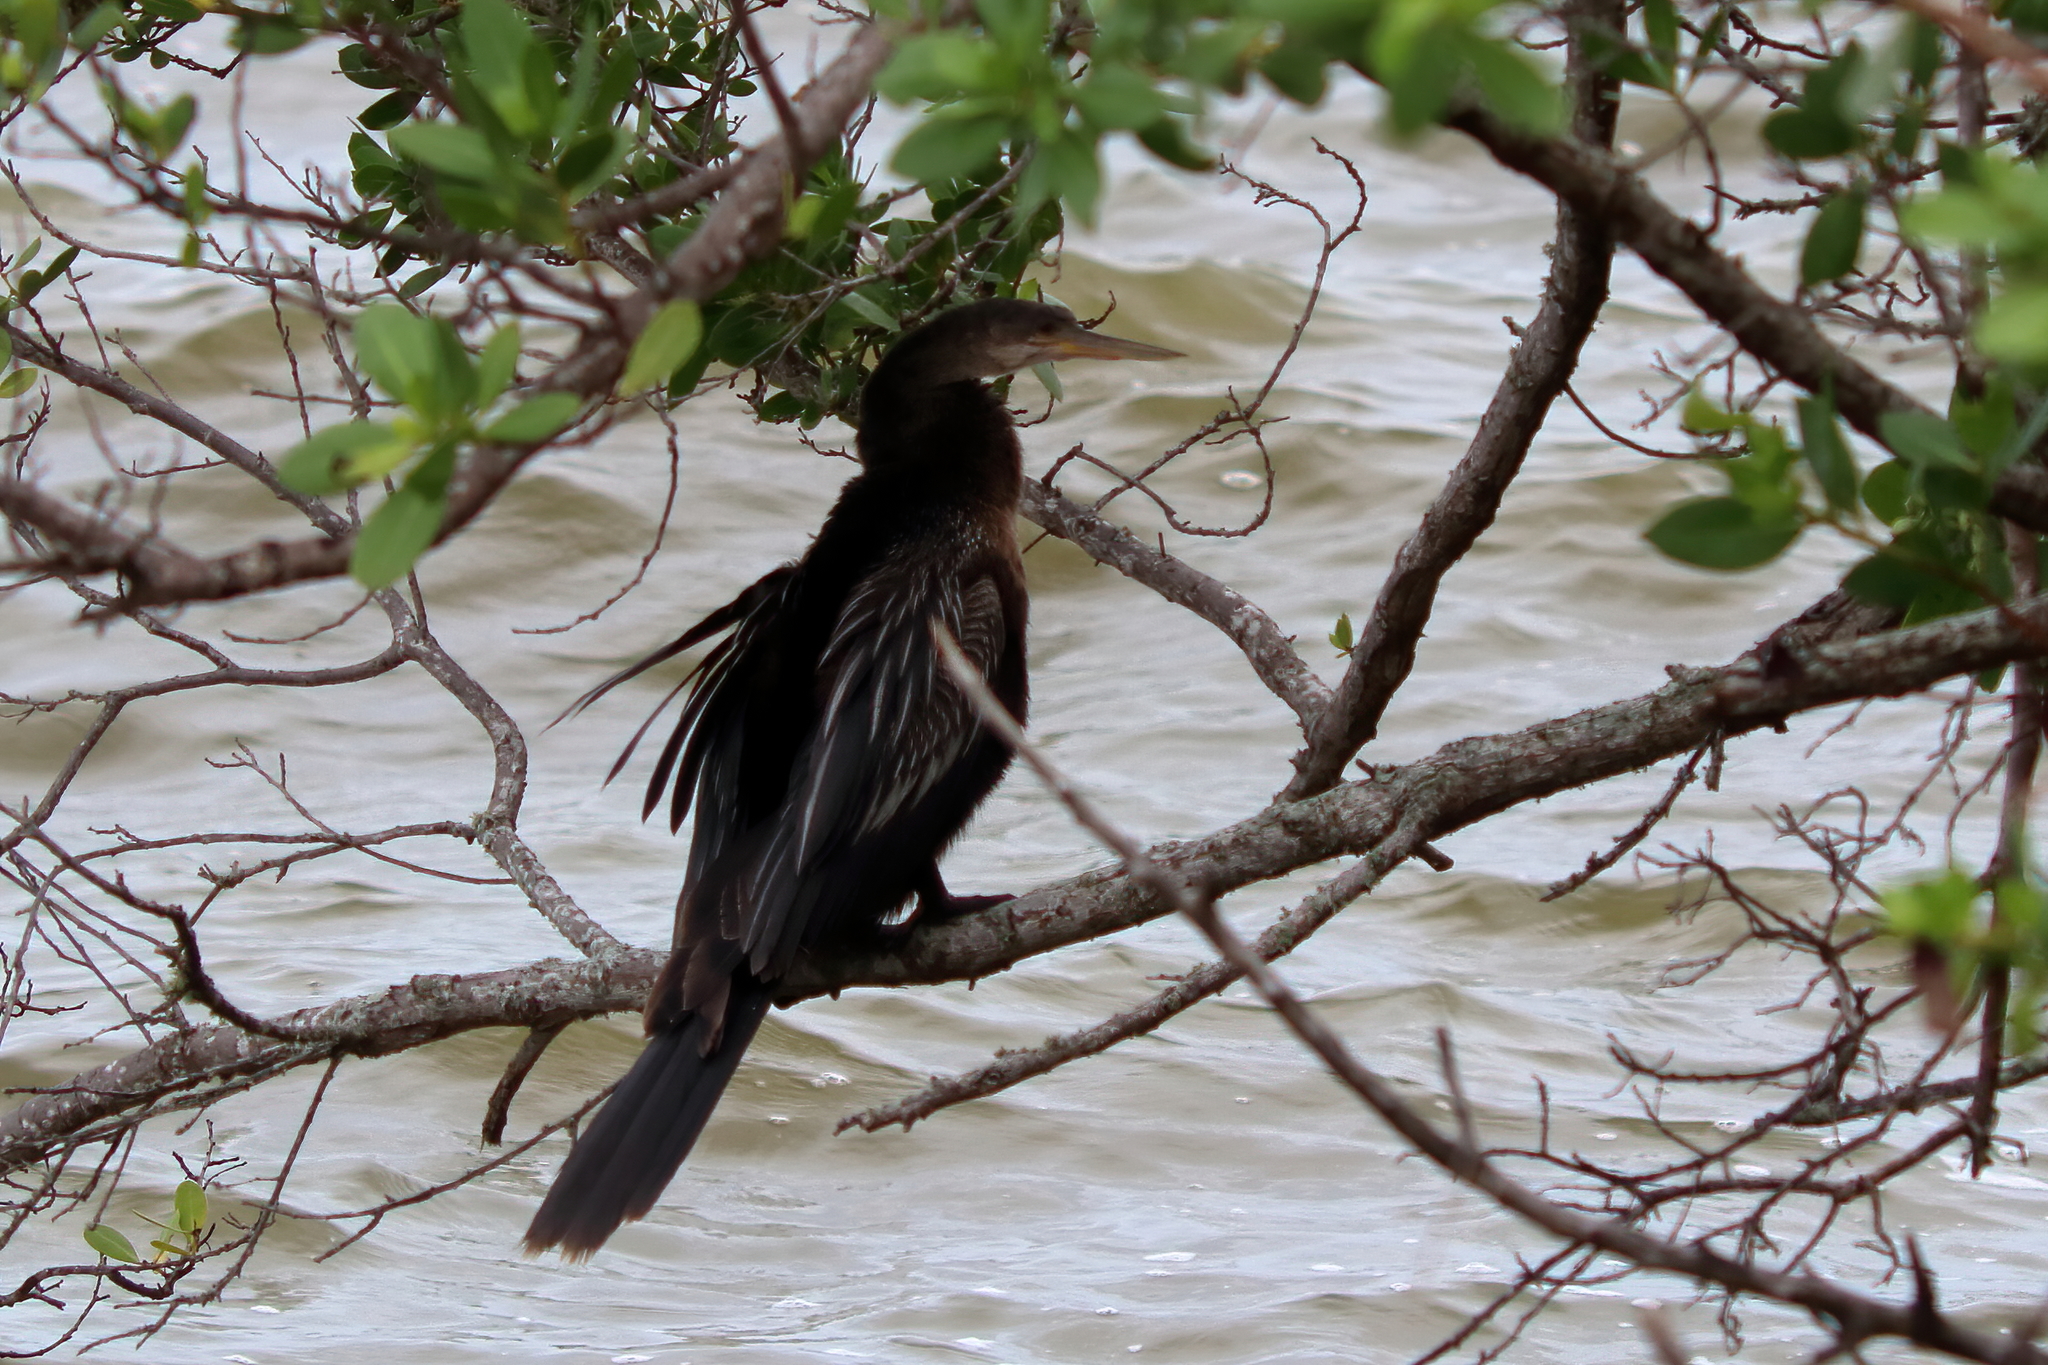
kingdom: Animalia
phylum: Chordata
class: Aves
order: Suliformes
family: Anhingidae
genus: Anhinga
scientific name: Anhinga anhinga
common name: Anhinga
